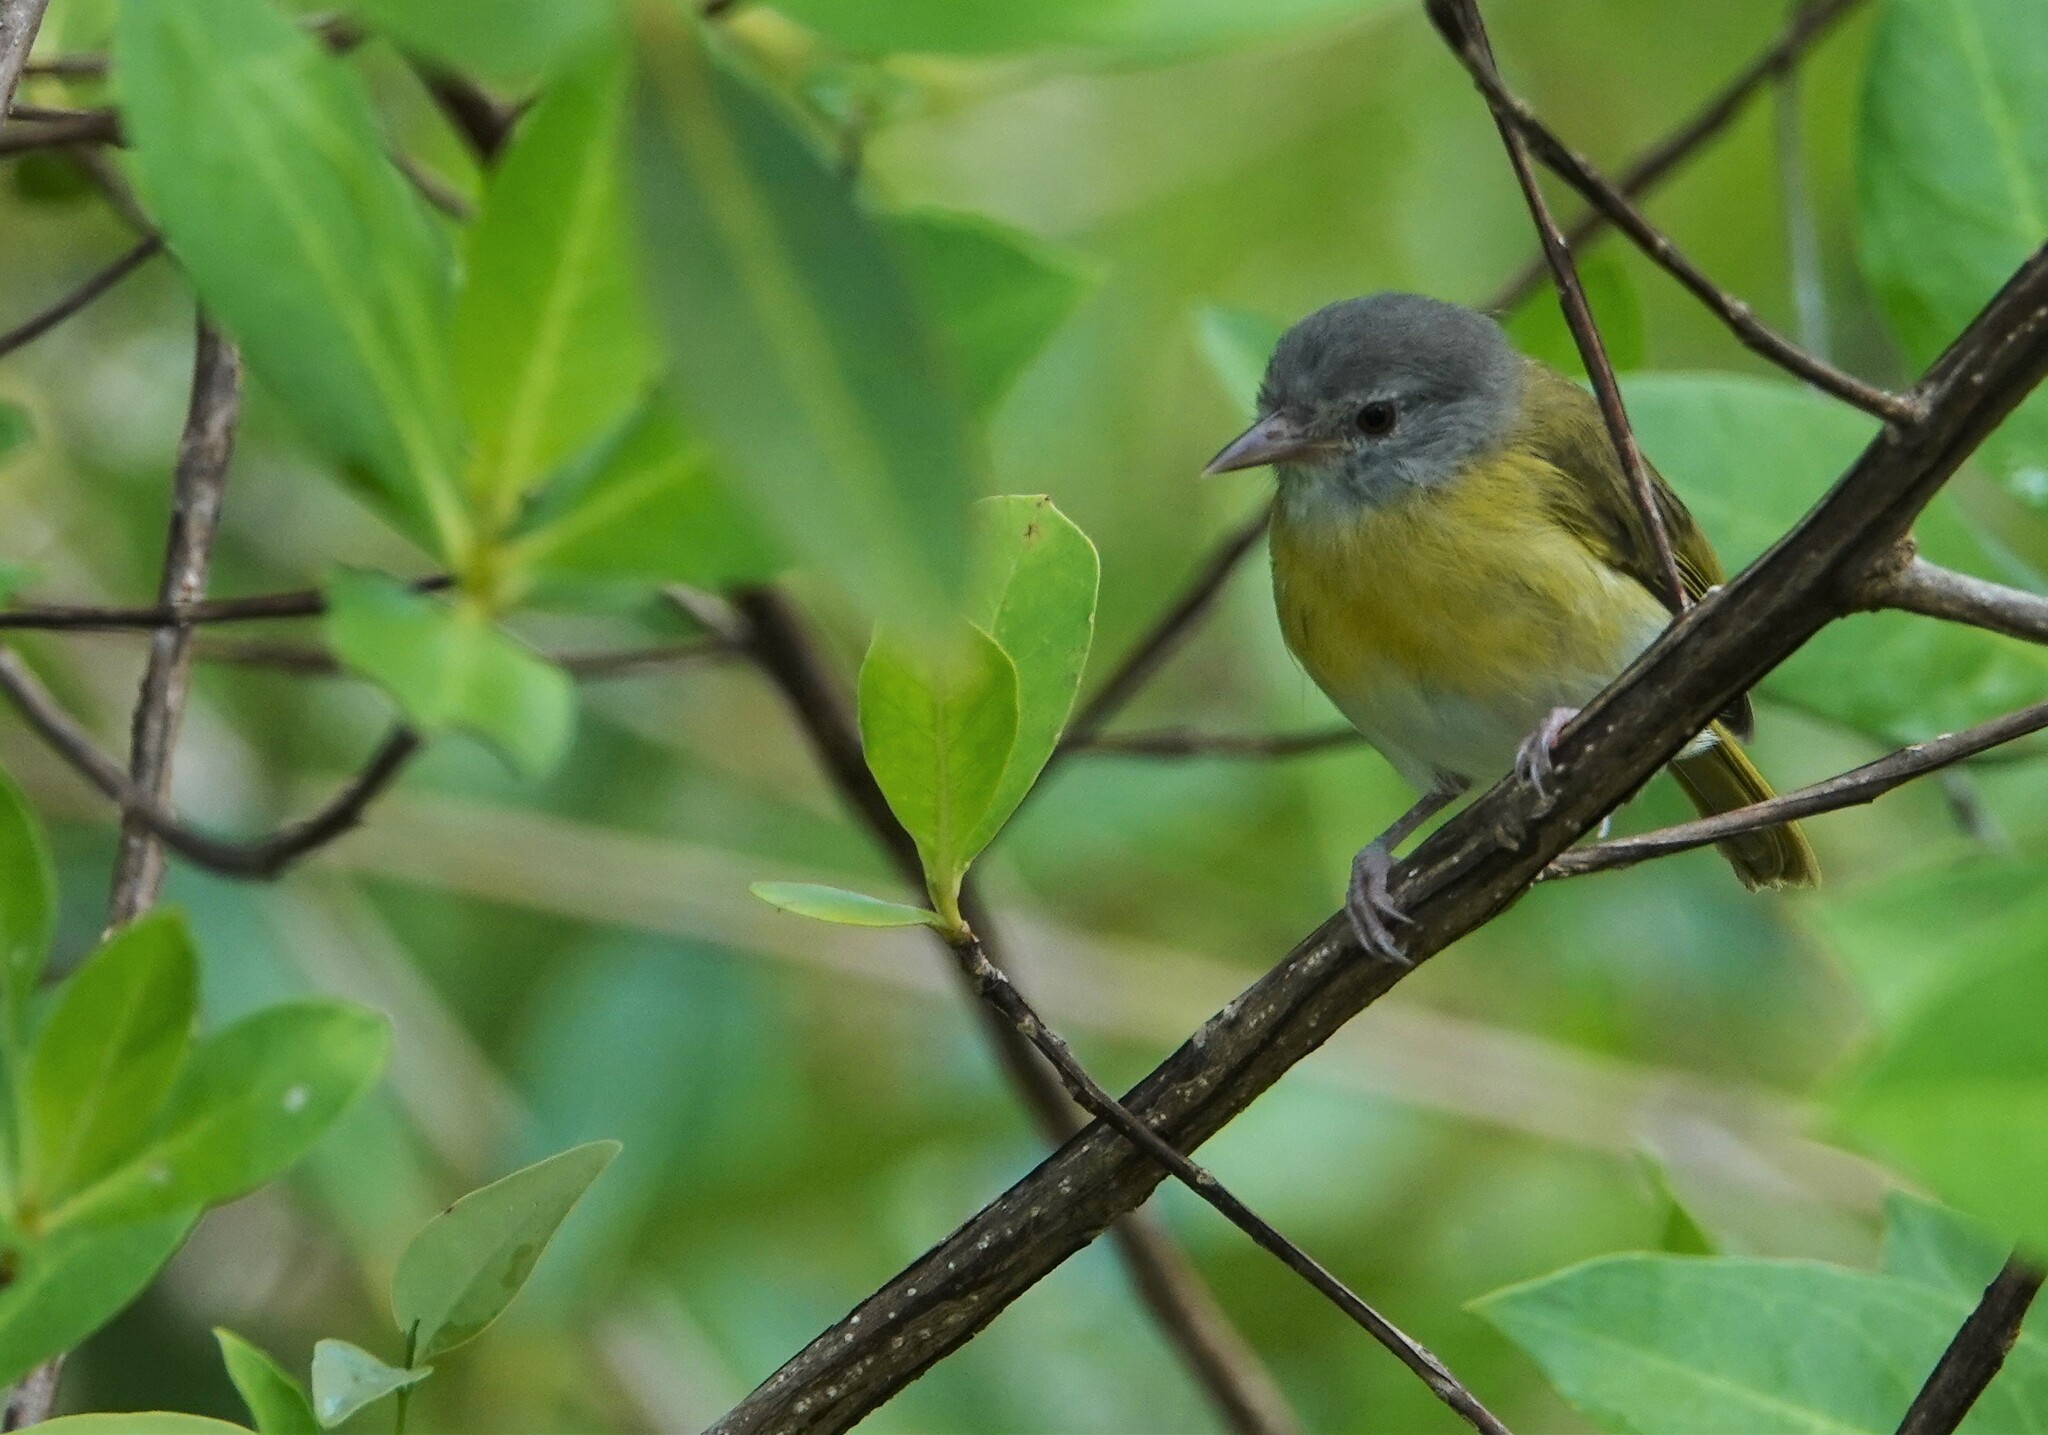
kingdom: Animalia
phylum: Chordata
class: Aves
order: Passeriformes
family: Vireonidae
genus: Hylophilus
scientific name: Hylophilus pectoralis
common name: Ashy-headed greenlet
